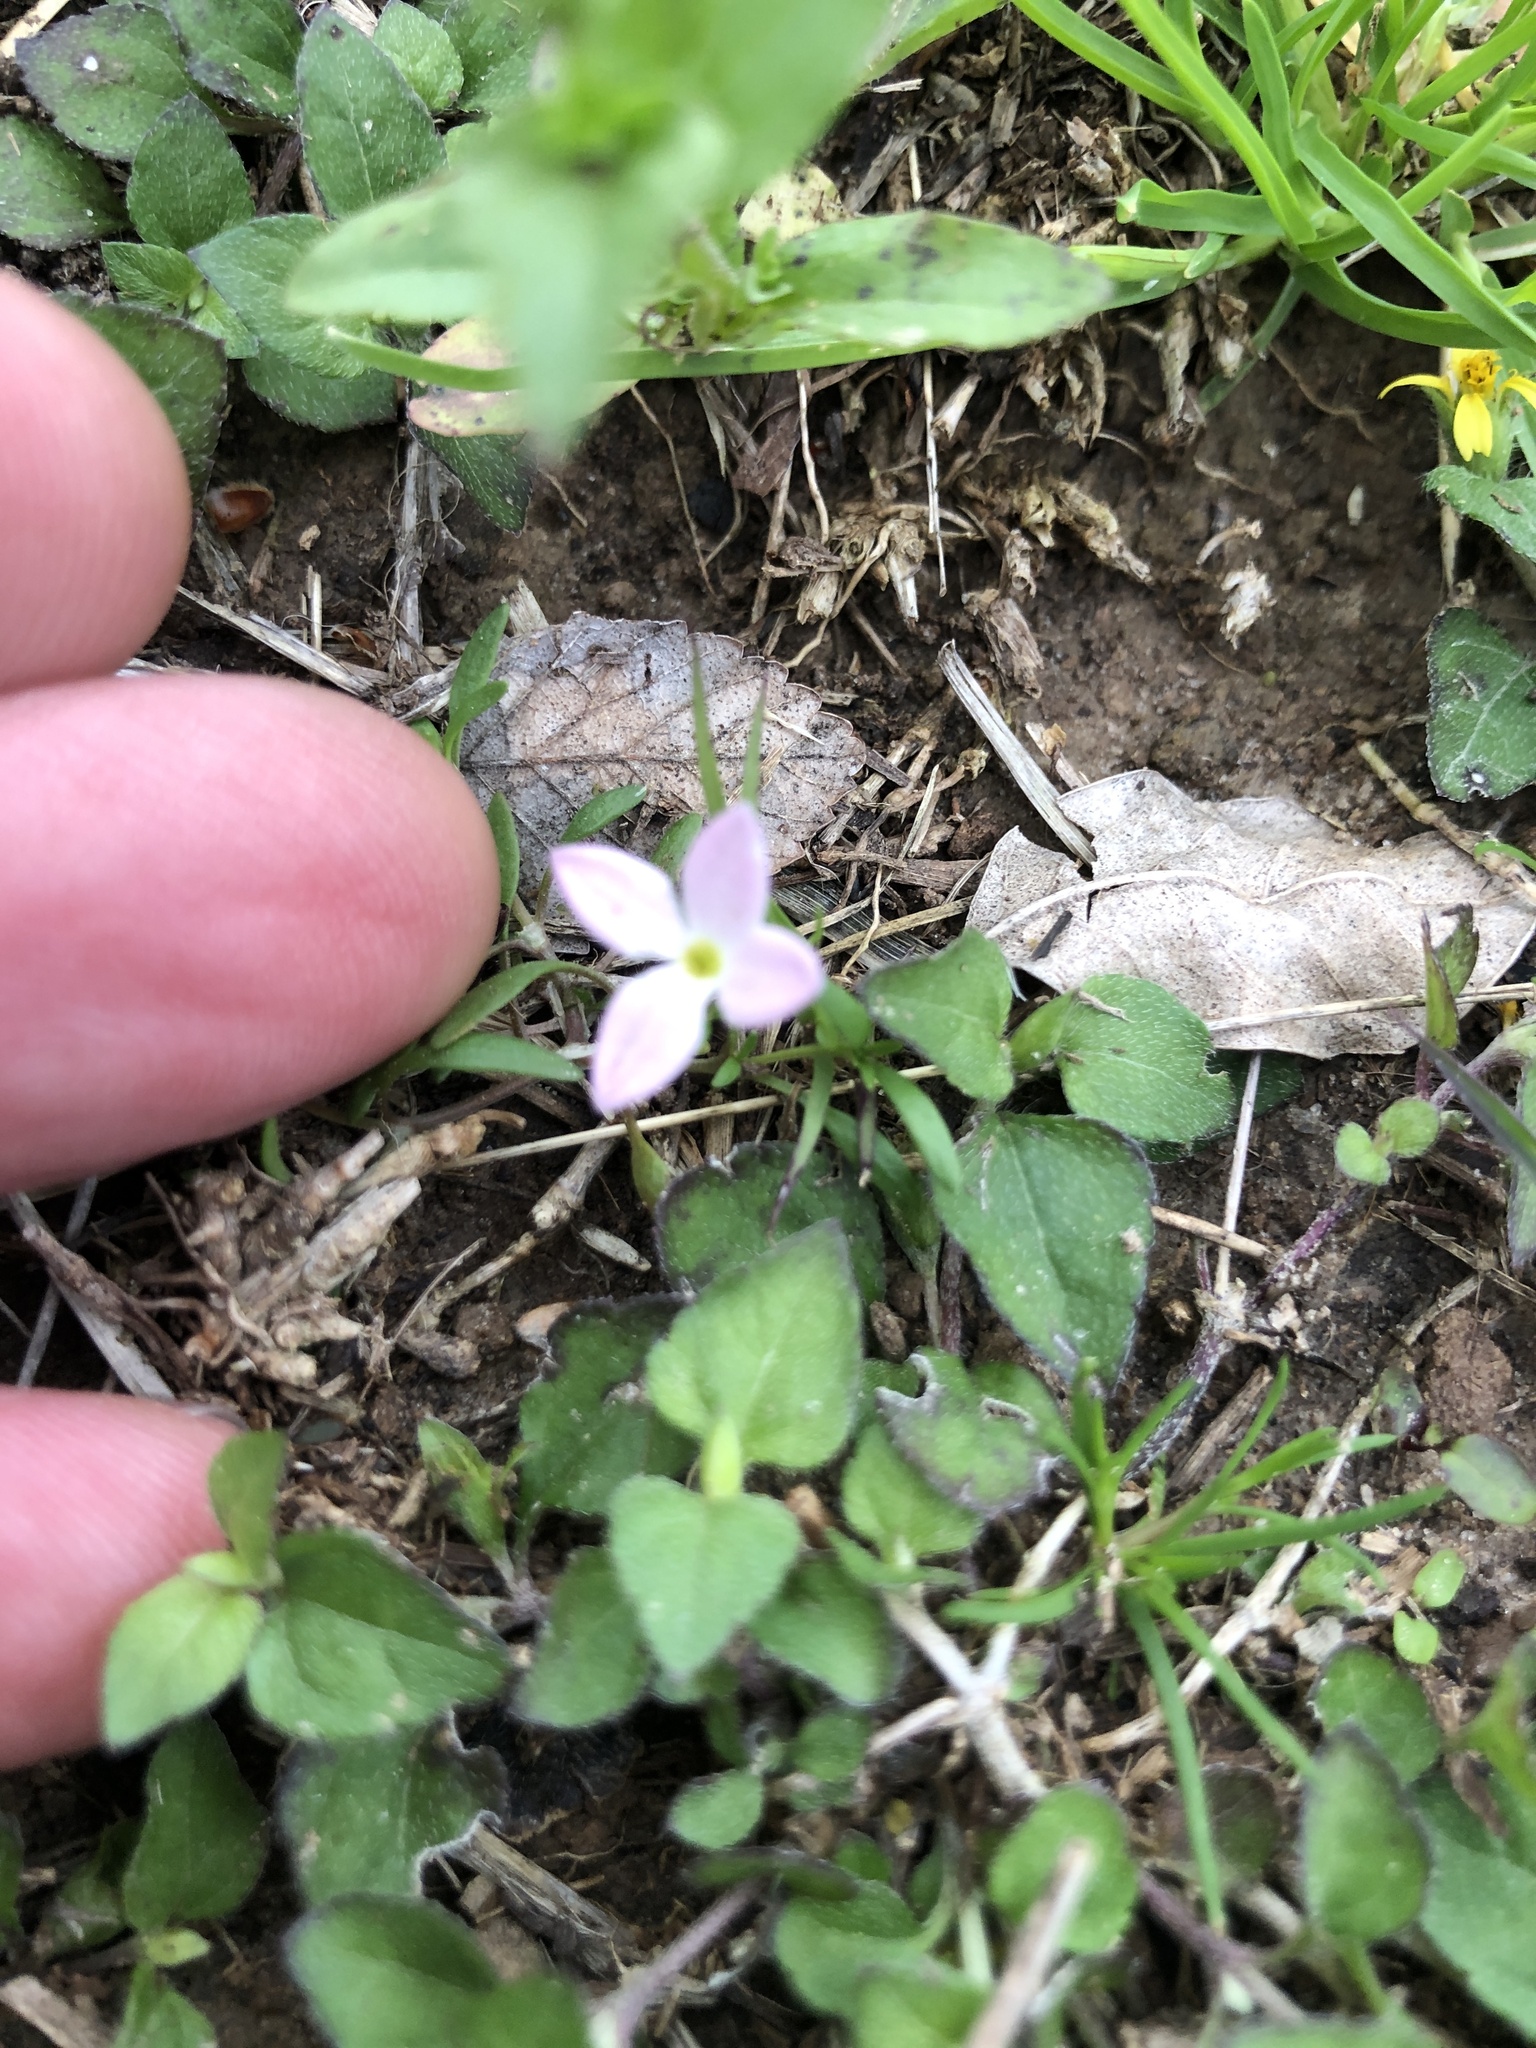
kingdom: Plantae
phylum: Tracheophyta
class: Magnoliopsida
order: Gentianales
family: Rubiaceae
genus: Houstonia
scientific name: Houstonia rosea
